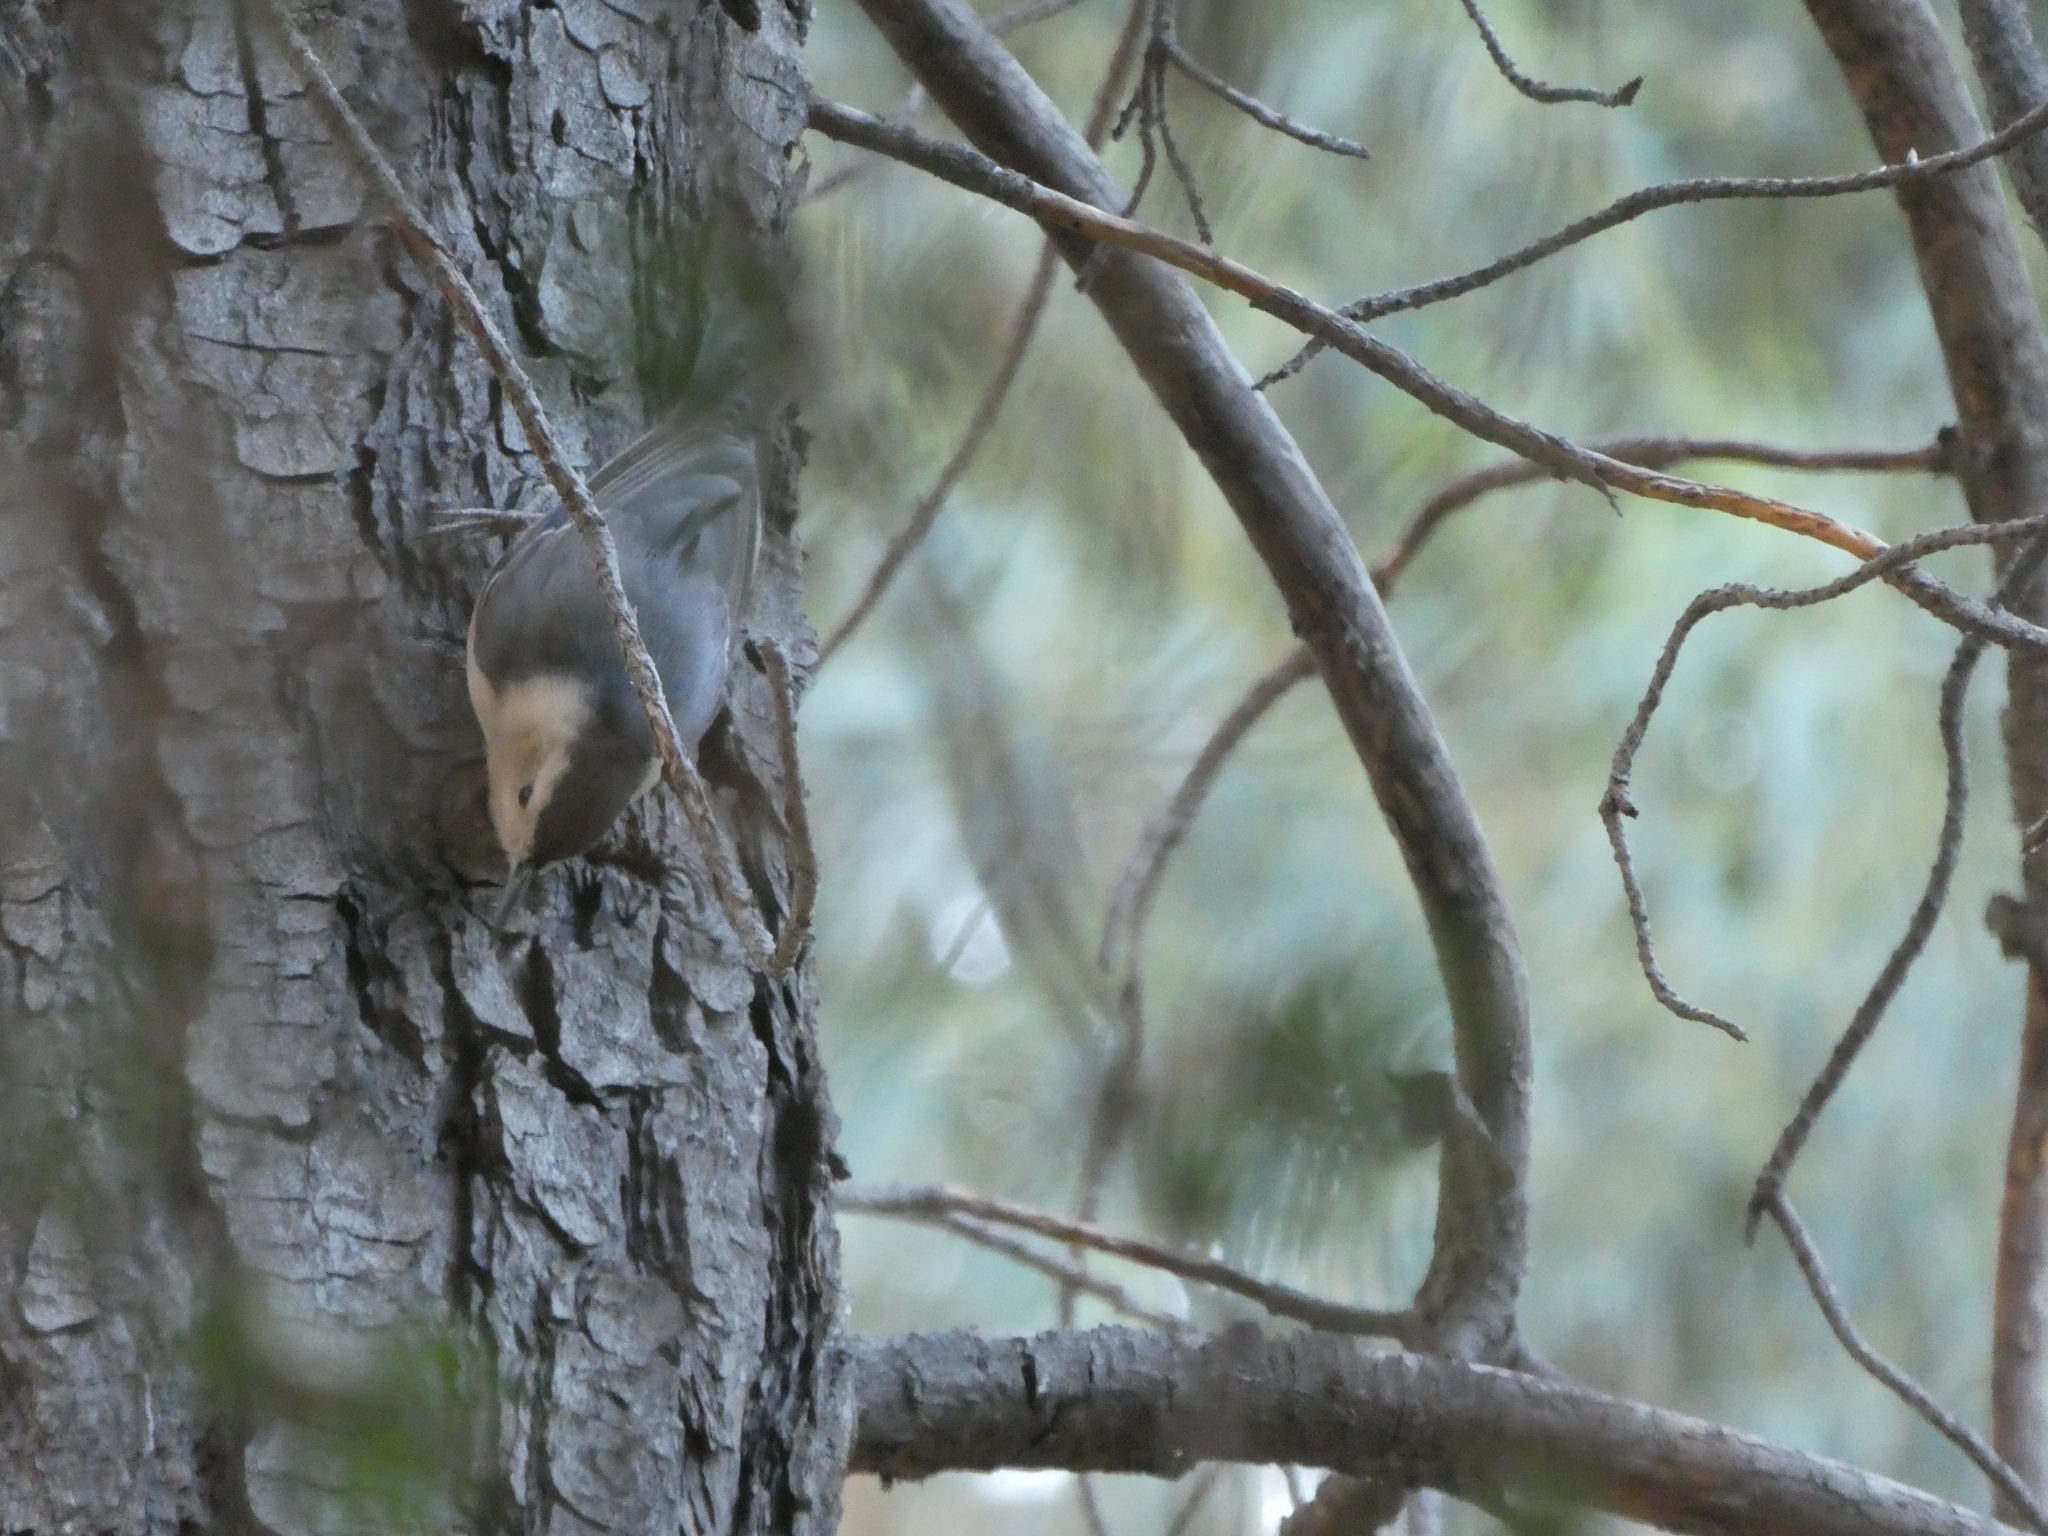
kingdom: Animalia
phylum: Chordata
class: Aves
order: Passeriformes
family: Sittidae
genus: Sitta
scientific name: Sitta carolinensis
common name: White-breasted nuthatch
